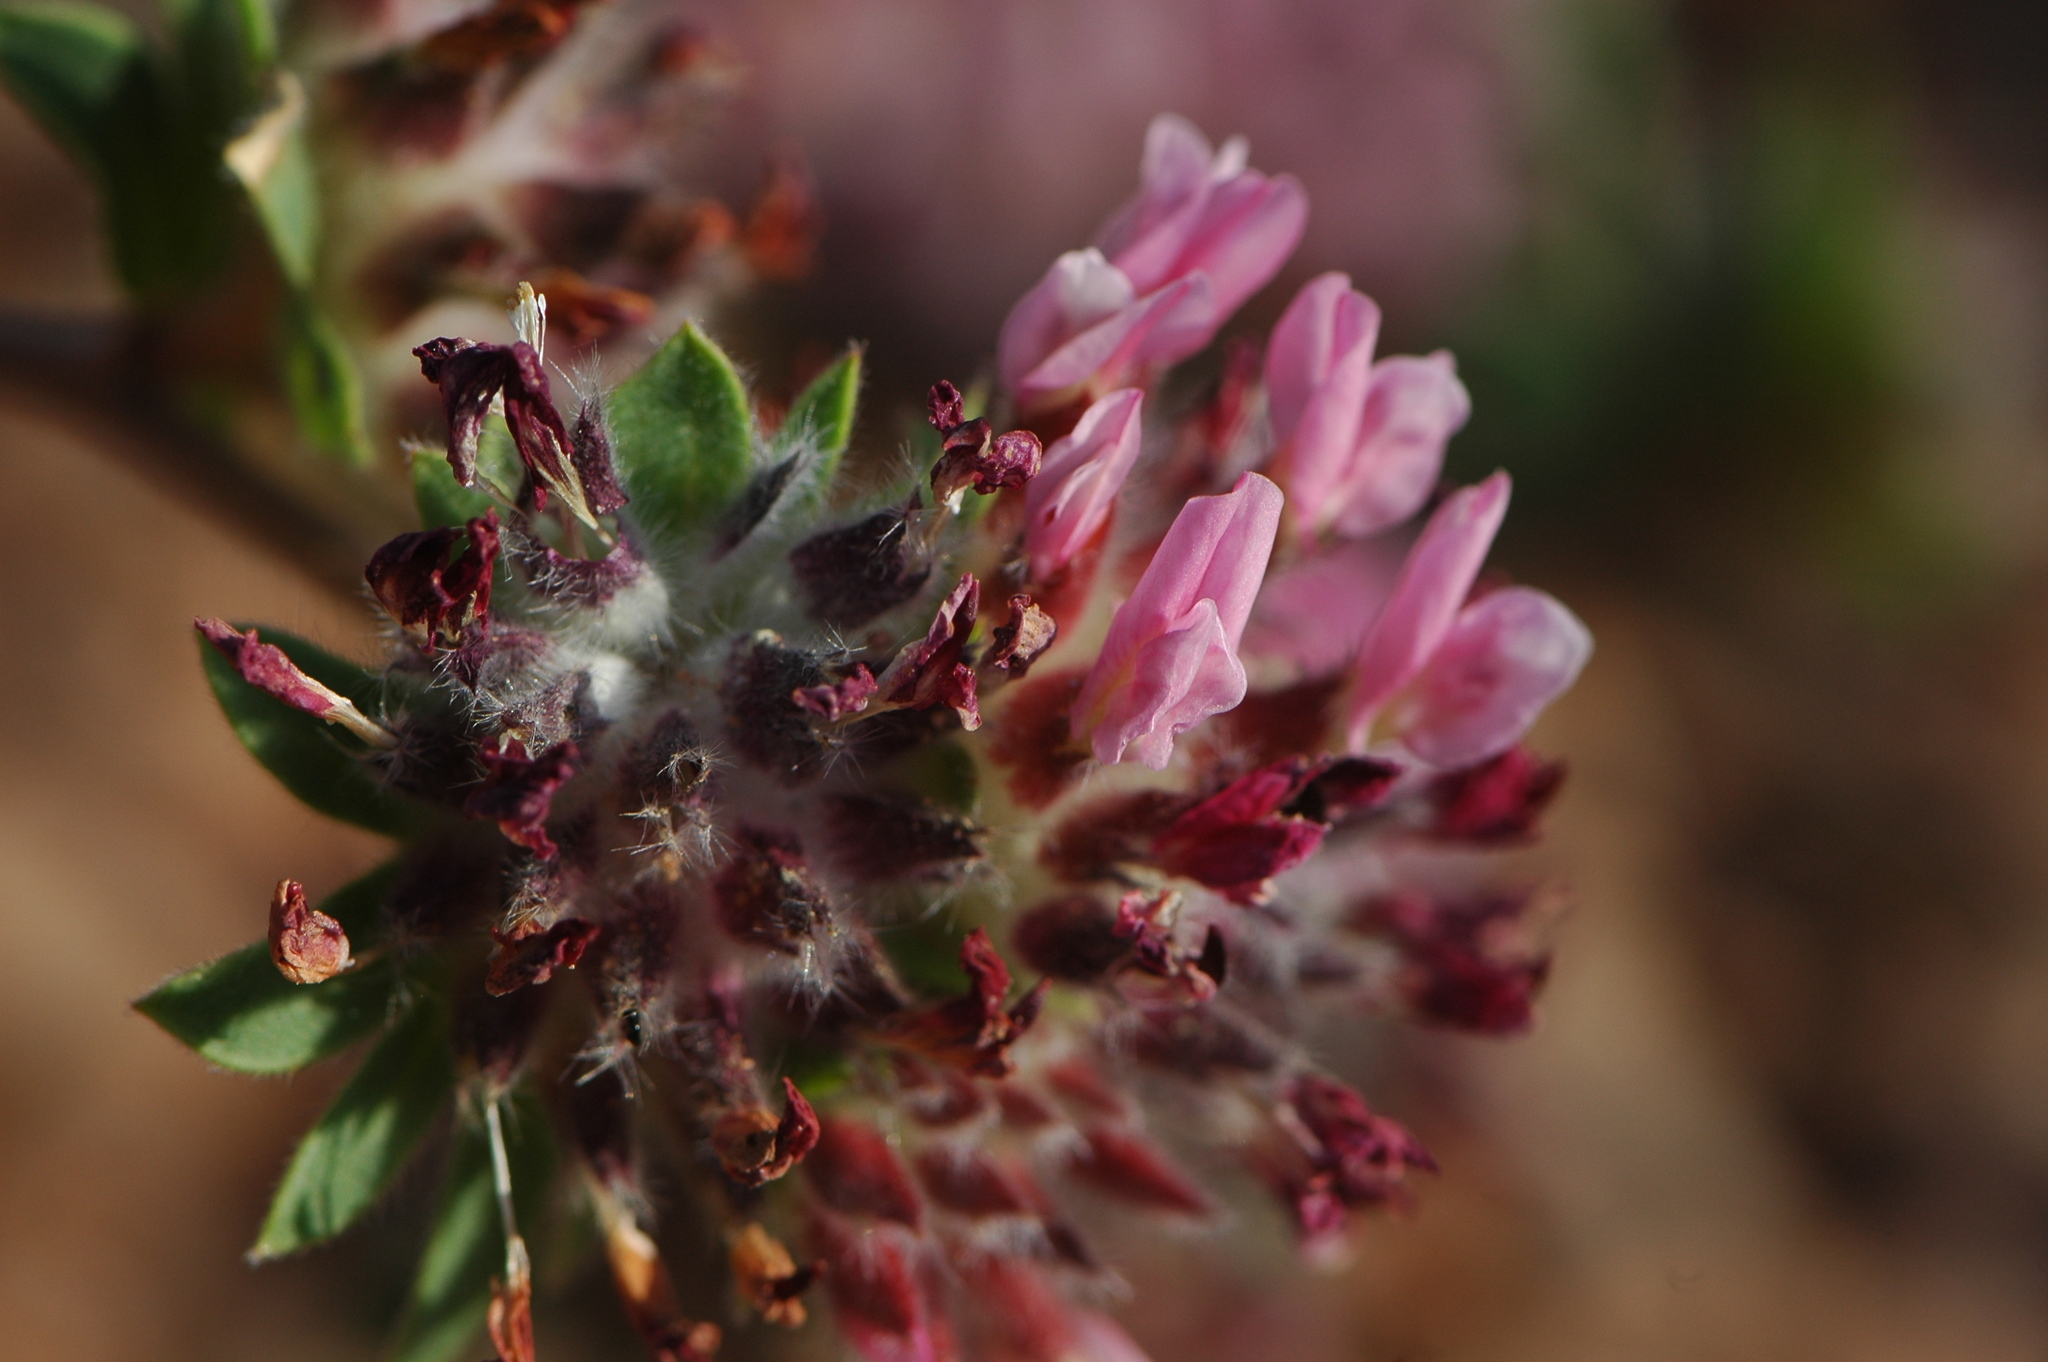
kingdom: Plantae
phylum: Tracheophyta
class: Magnoliopsida
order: Fabales
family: Fabaceae
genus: Anthyllis
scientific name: Anthyllis vulneraria
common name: Kidney vetch
